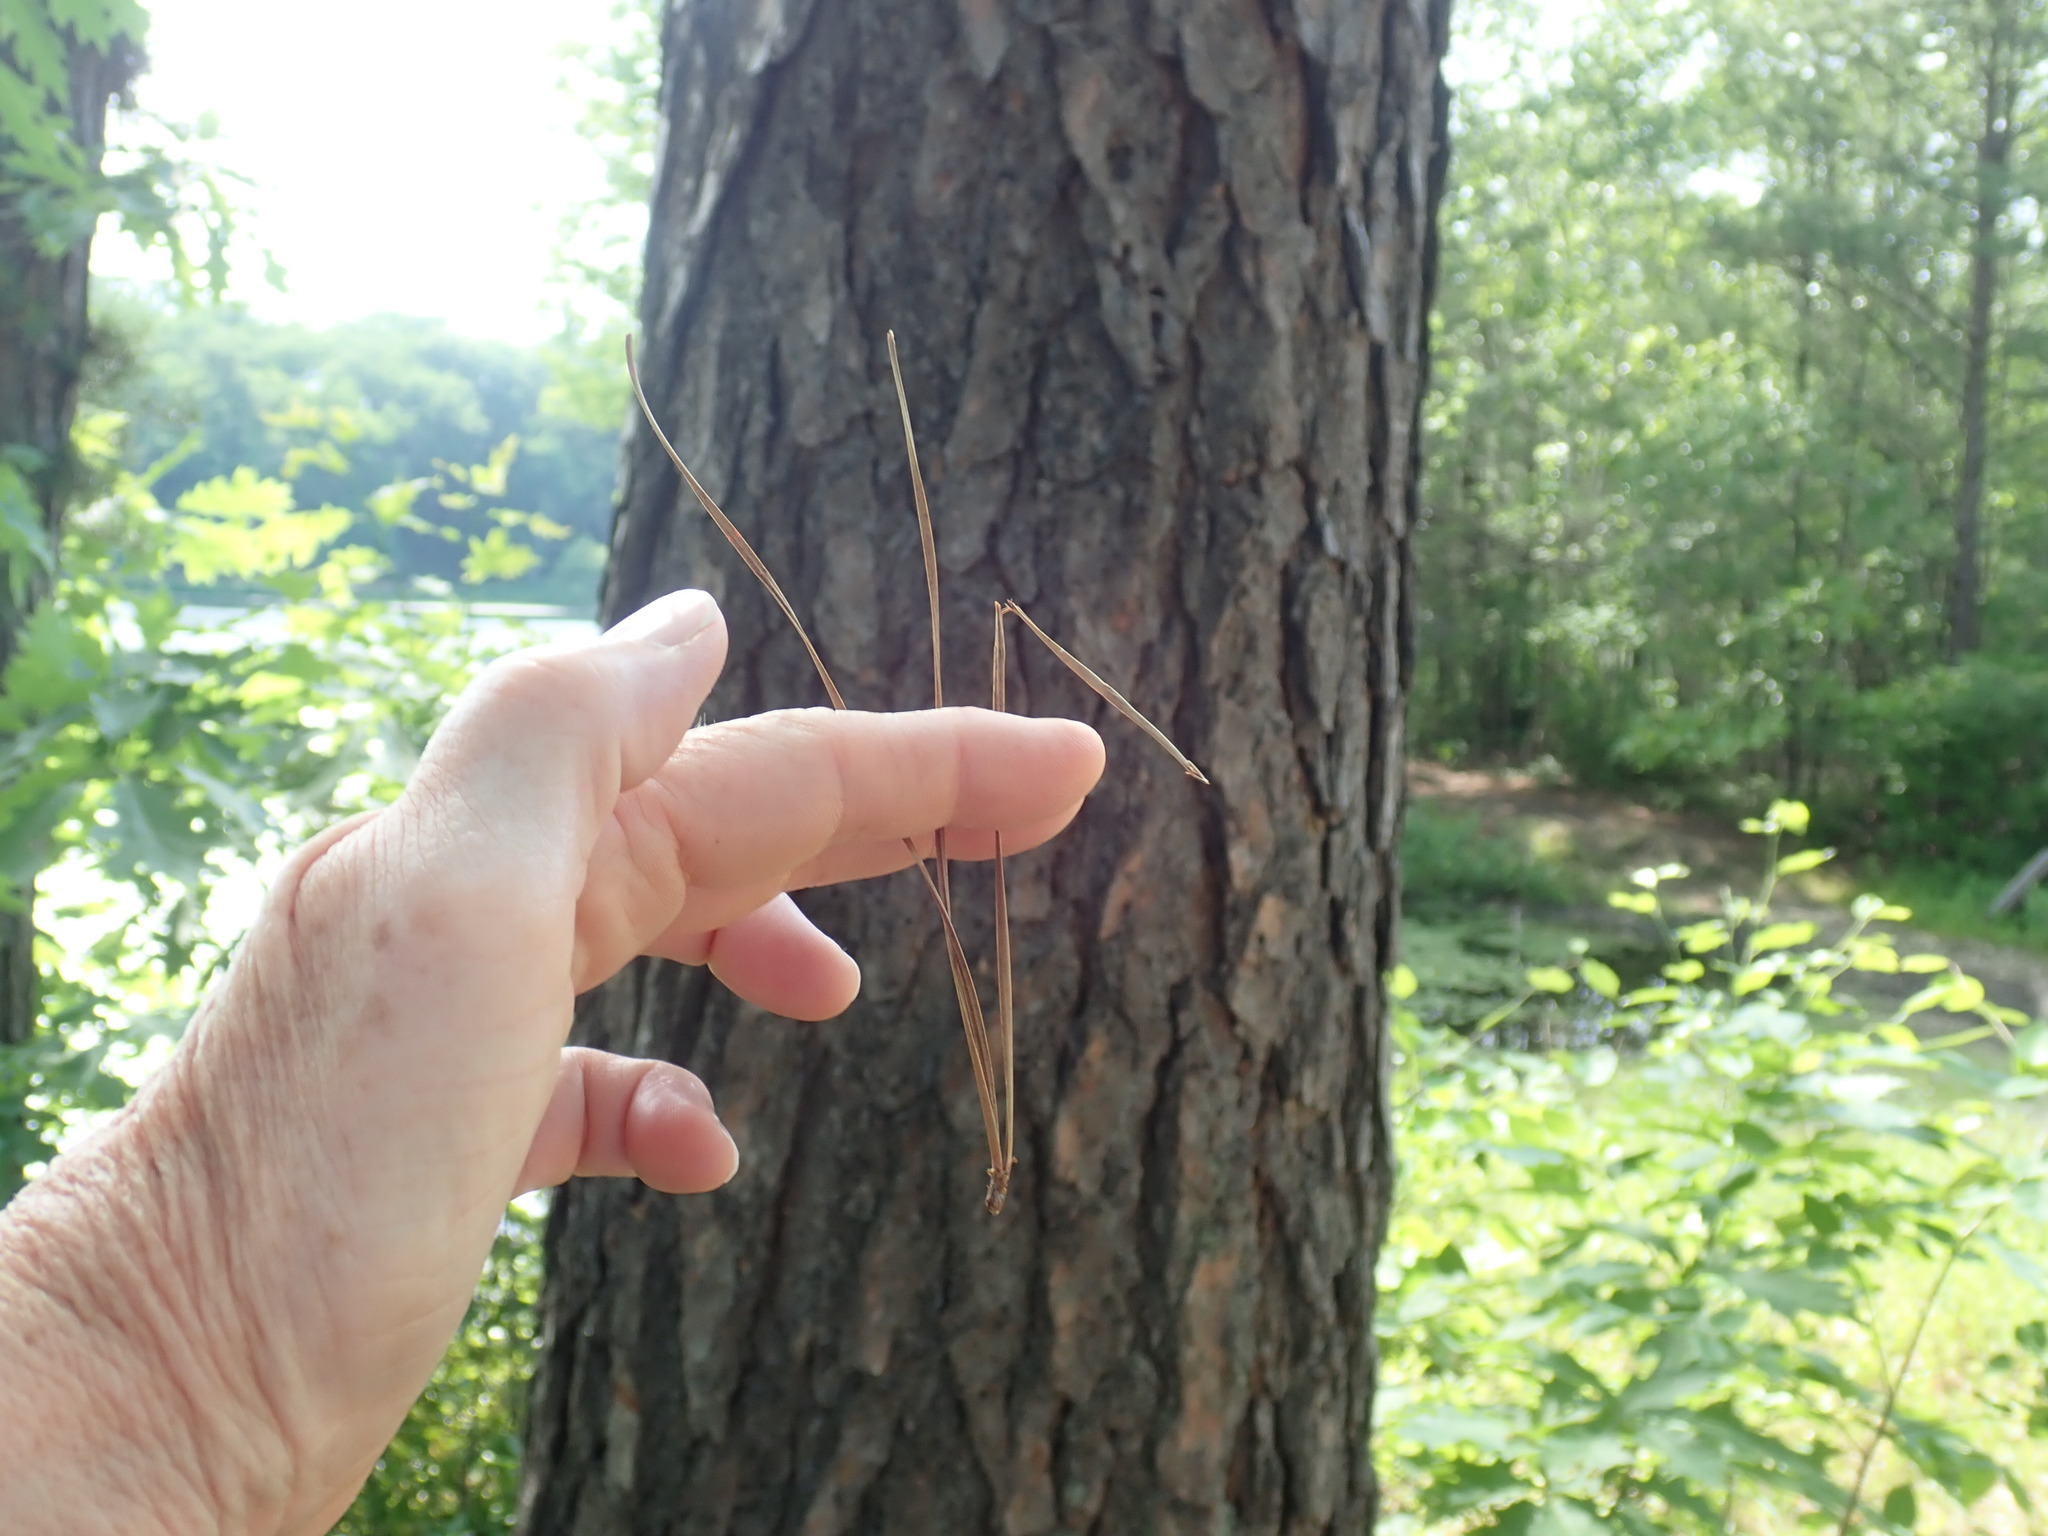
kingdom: Plantae
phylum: Tracheophyta
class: Pinopsida
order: Pinales
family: Pinaceae
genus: Pinus
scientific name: Pinus rigida
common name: Pitch pine
